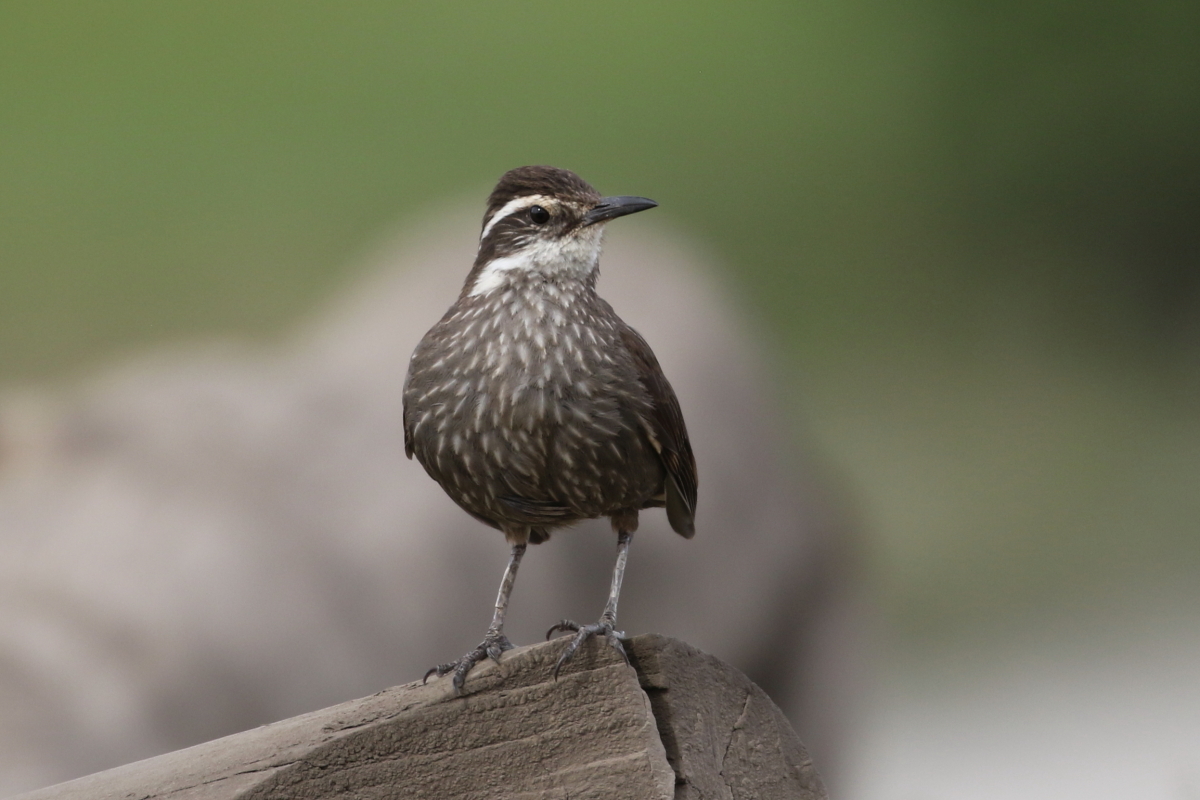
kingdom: Animalia
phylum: Chordata
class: Aves
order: Passeriformes
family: Furnariidae
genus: Cinclodes
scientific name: Cinclodes patagonicus
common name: Dark-bellied cinclodes
